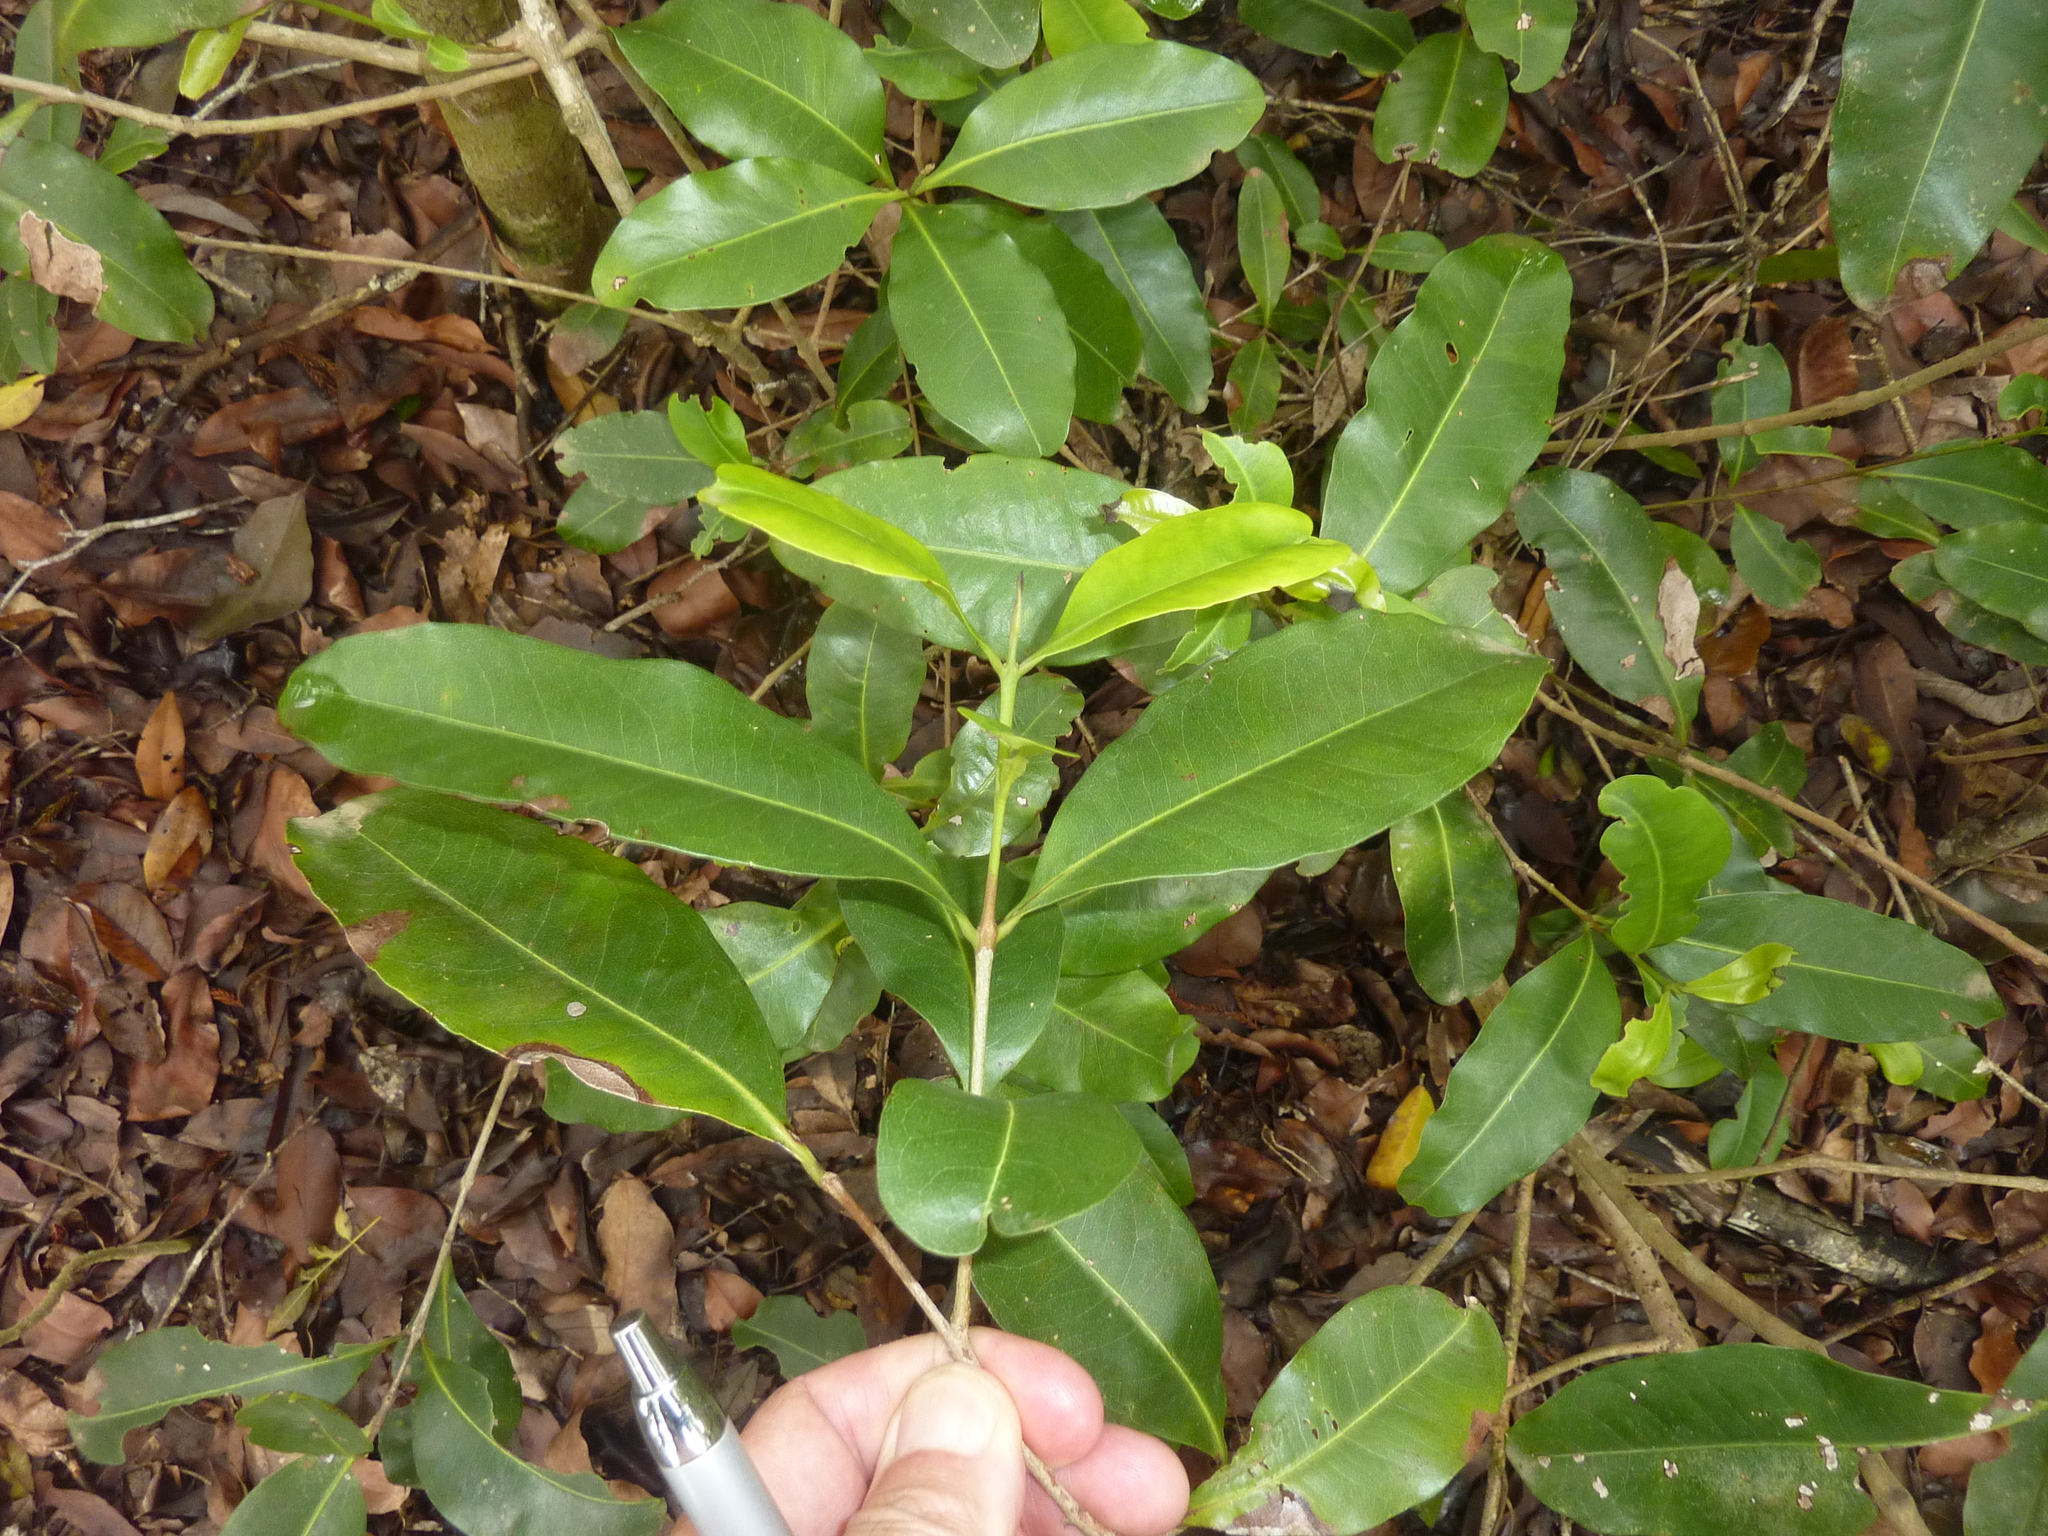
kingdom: Plantae
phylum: Tracheophyta
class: Magnoliopsida
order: Myrtales
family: Myrtaceae
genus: Xanthostemon
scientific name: Xanthostemon oppositifolius
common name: Southern penda
